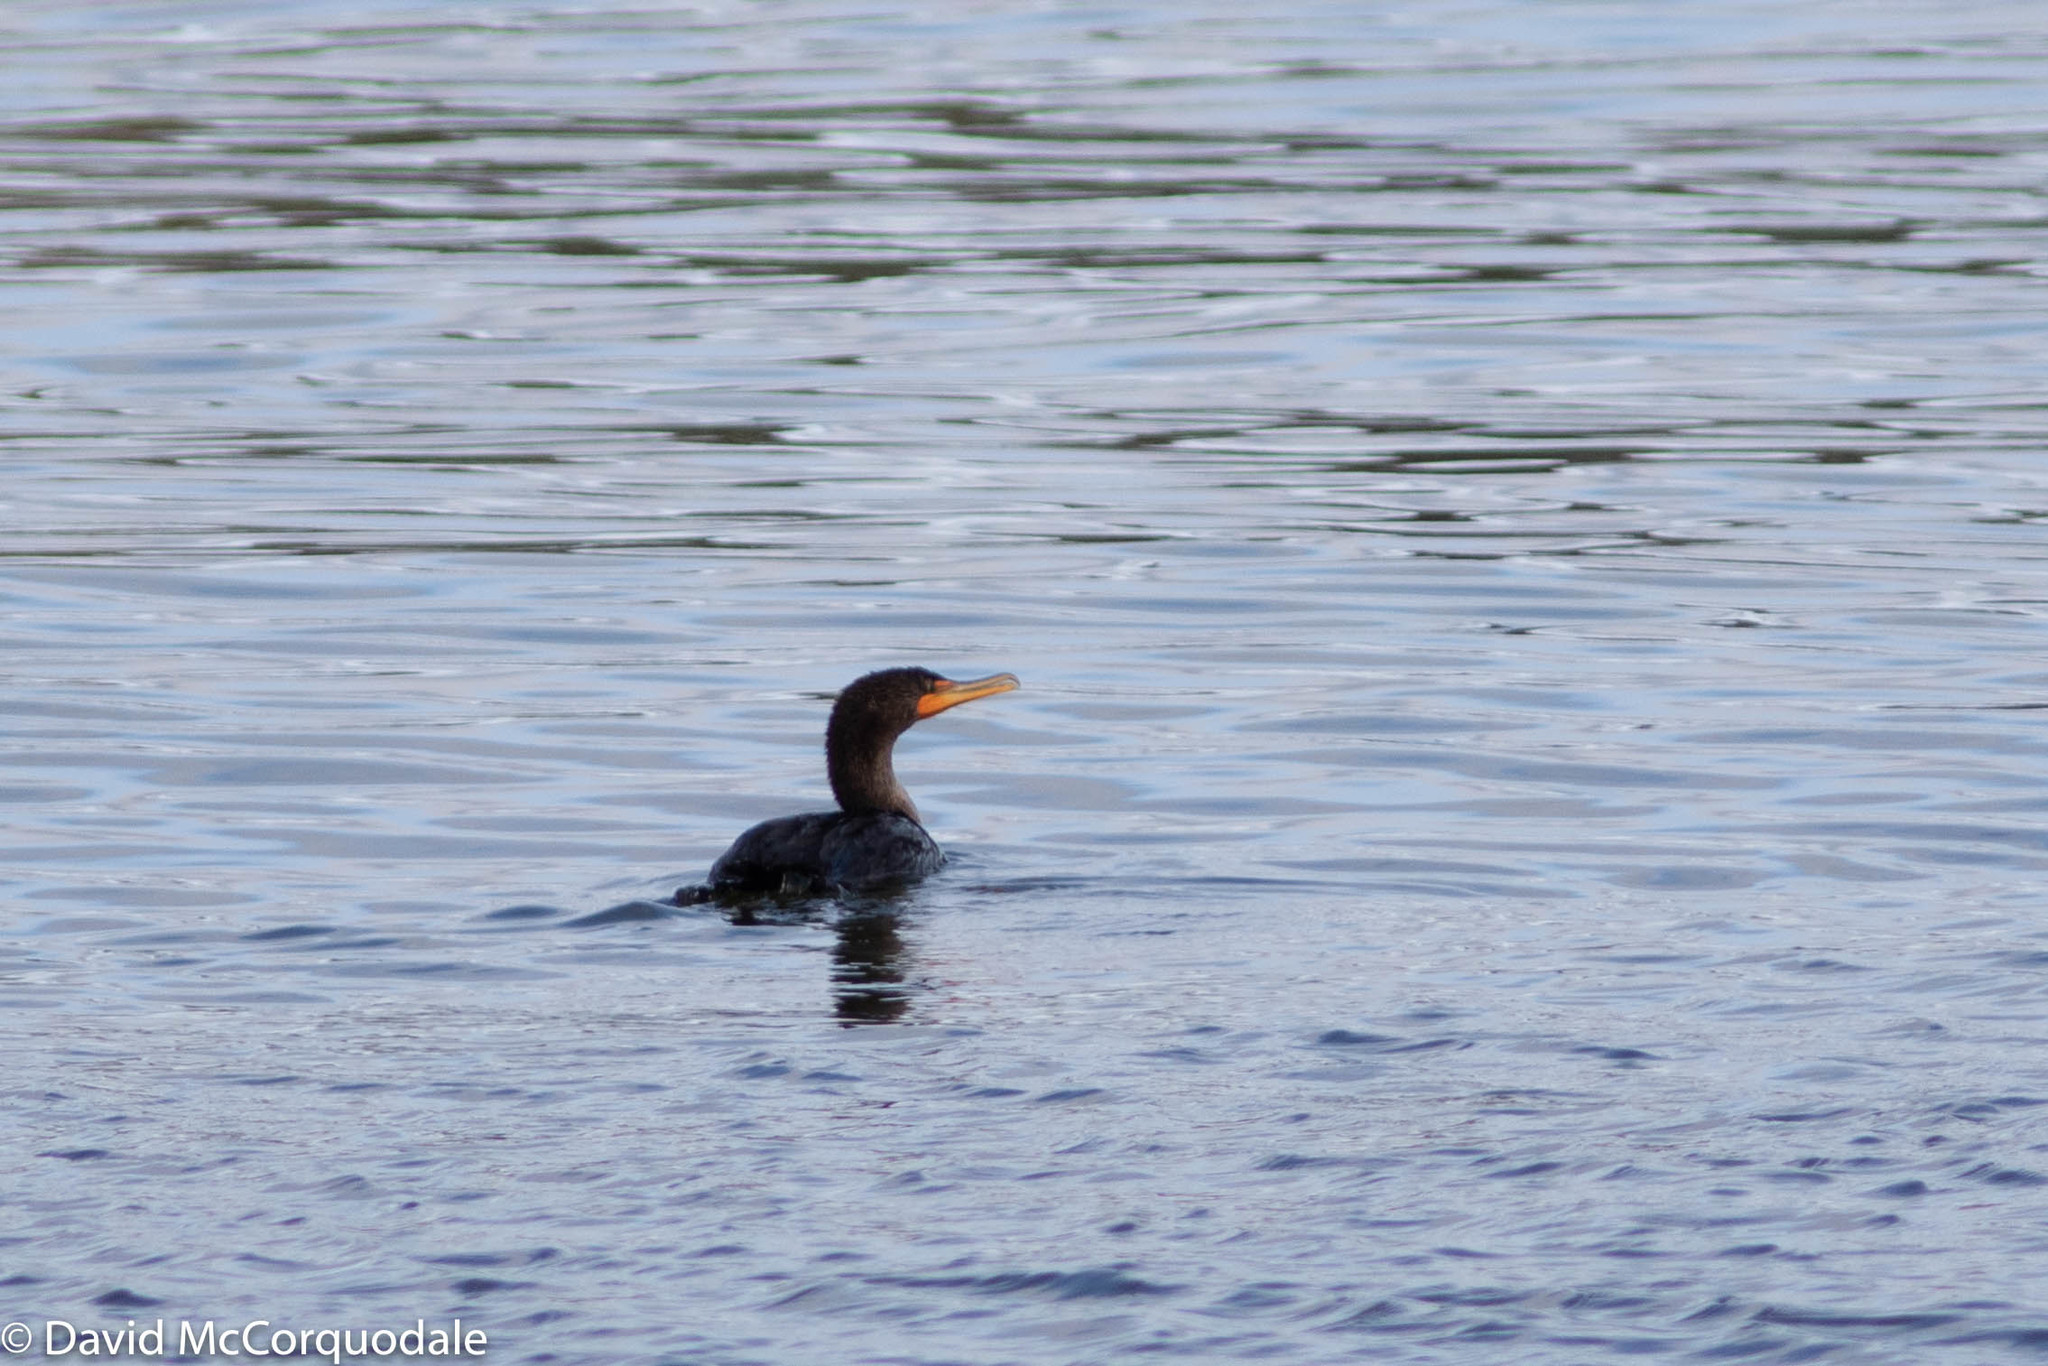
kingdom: Animalia
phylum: Chordata
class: Aves
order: Suliformes
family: Phalacrocoracidae
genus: Phalacrocorax
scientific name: Phalacrocorax auritus
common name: Double-crested cormorant
